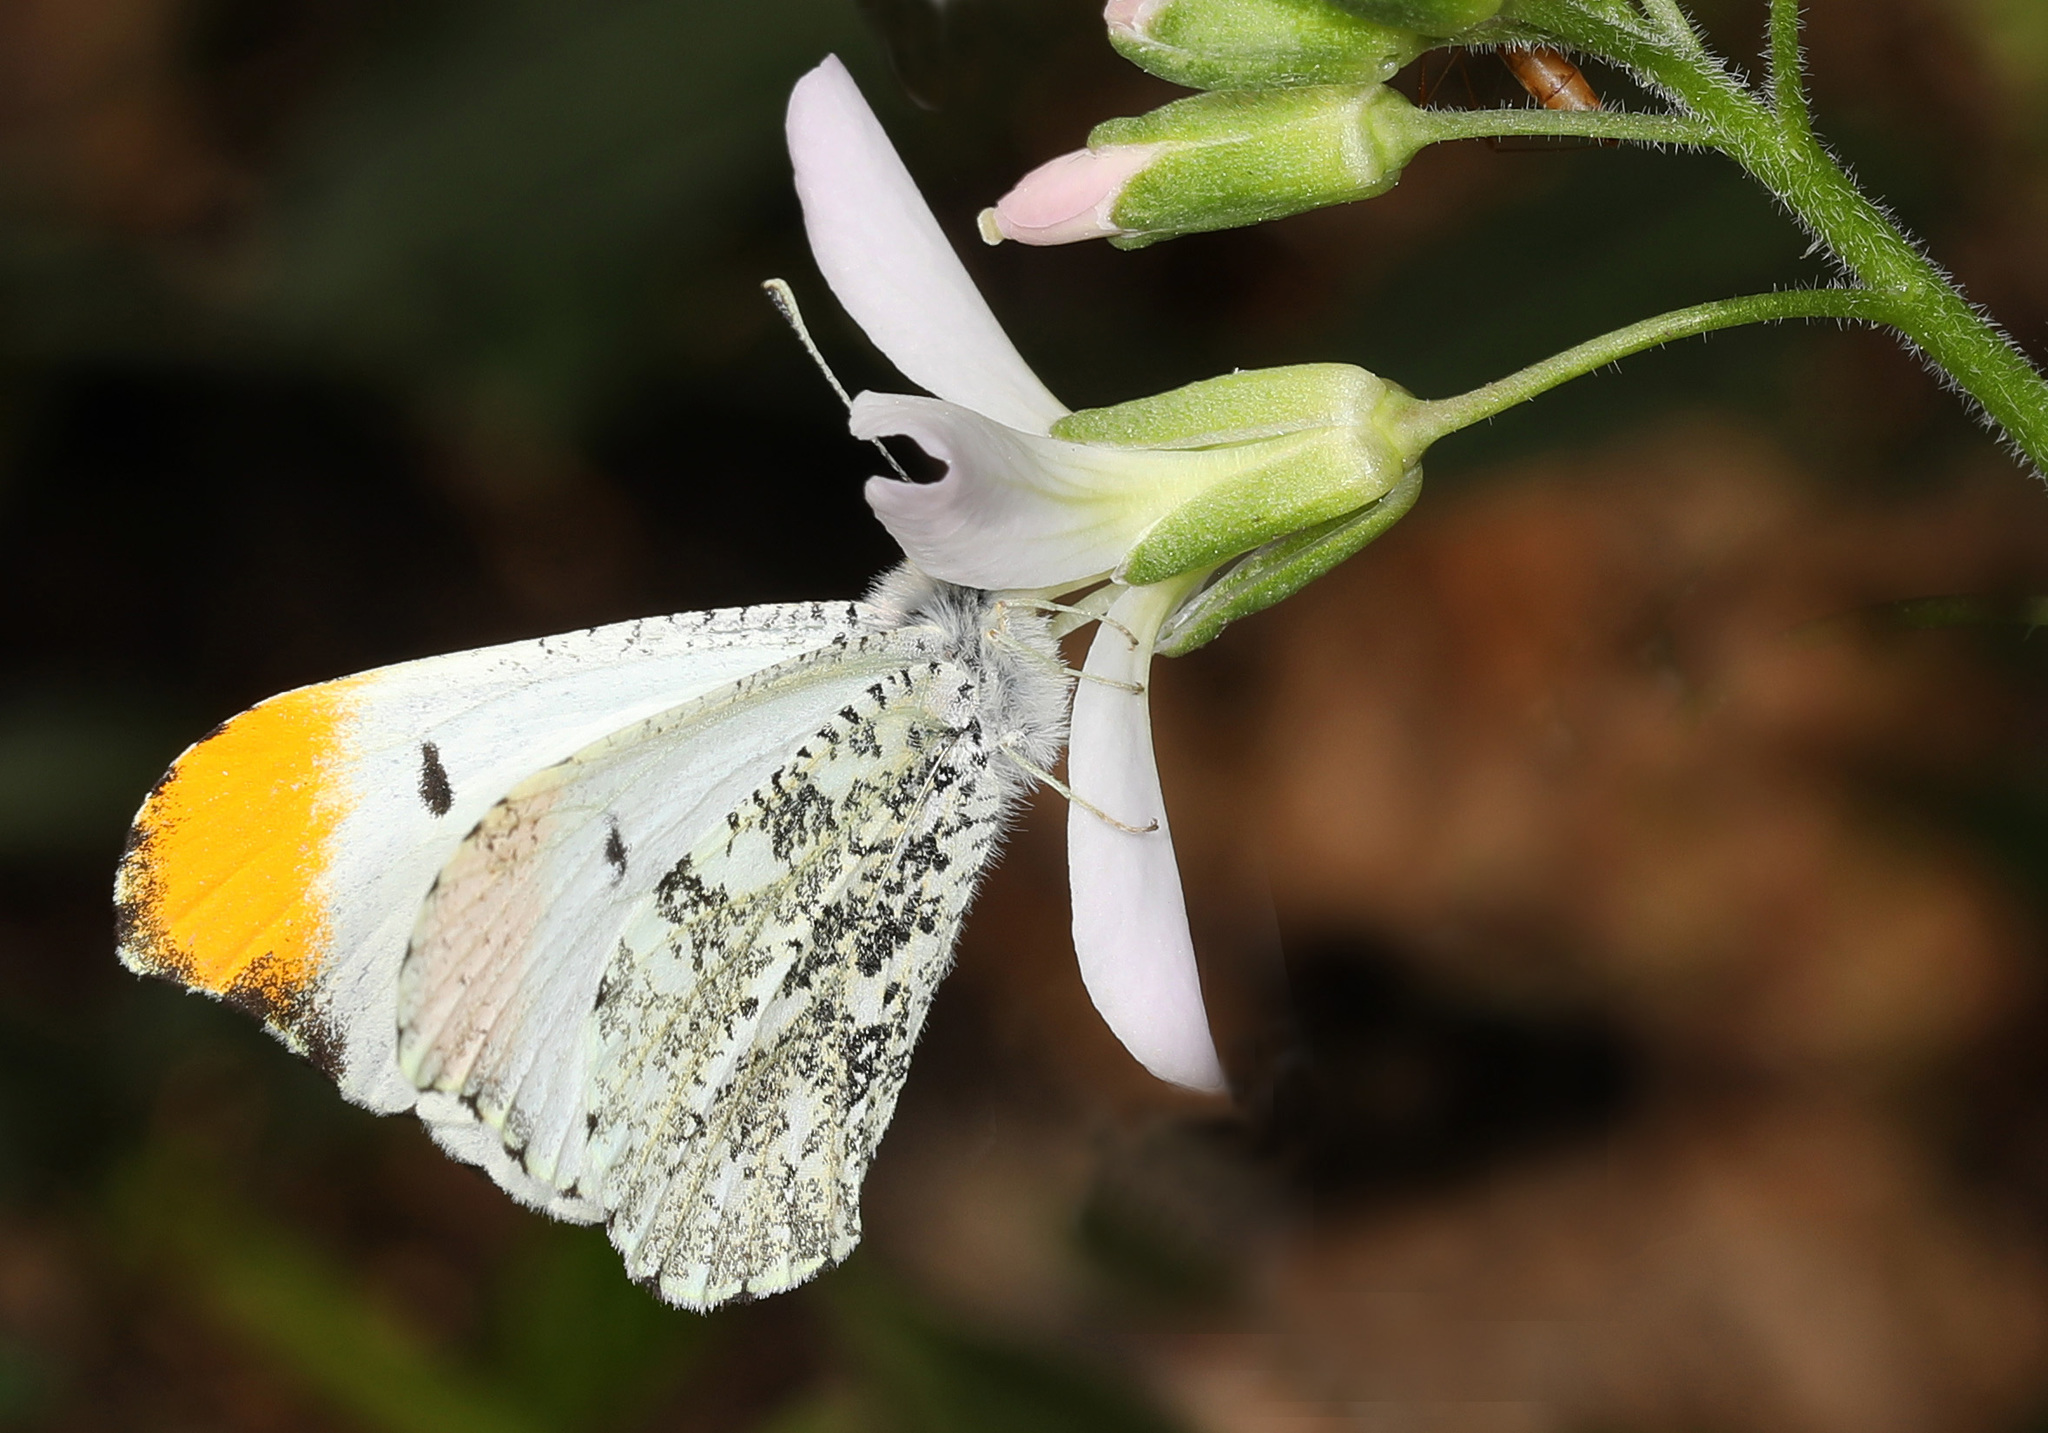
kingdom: Animalia
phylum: Arthropoda
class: Insecta
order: Lepidoptera
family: Pieridae
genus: Anthocharis
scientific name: Anthocharis midea
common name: Falcate orangetip
